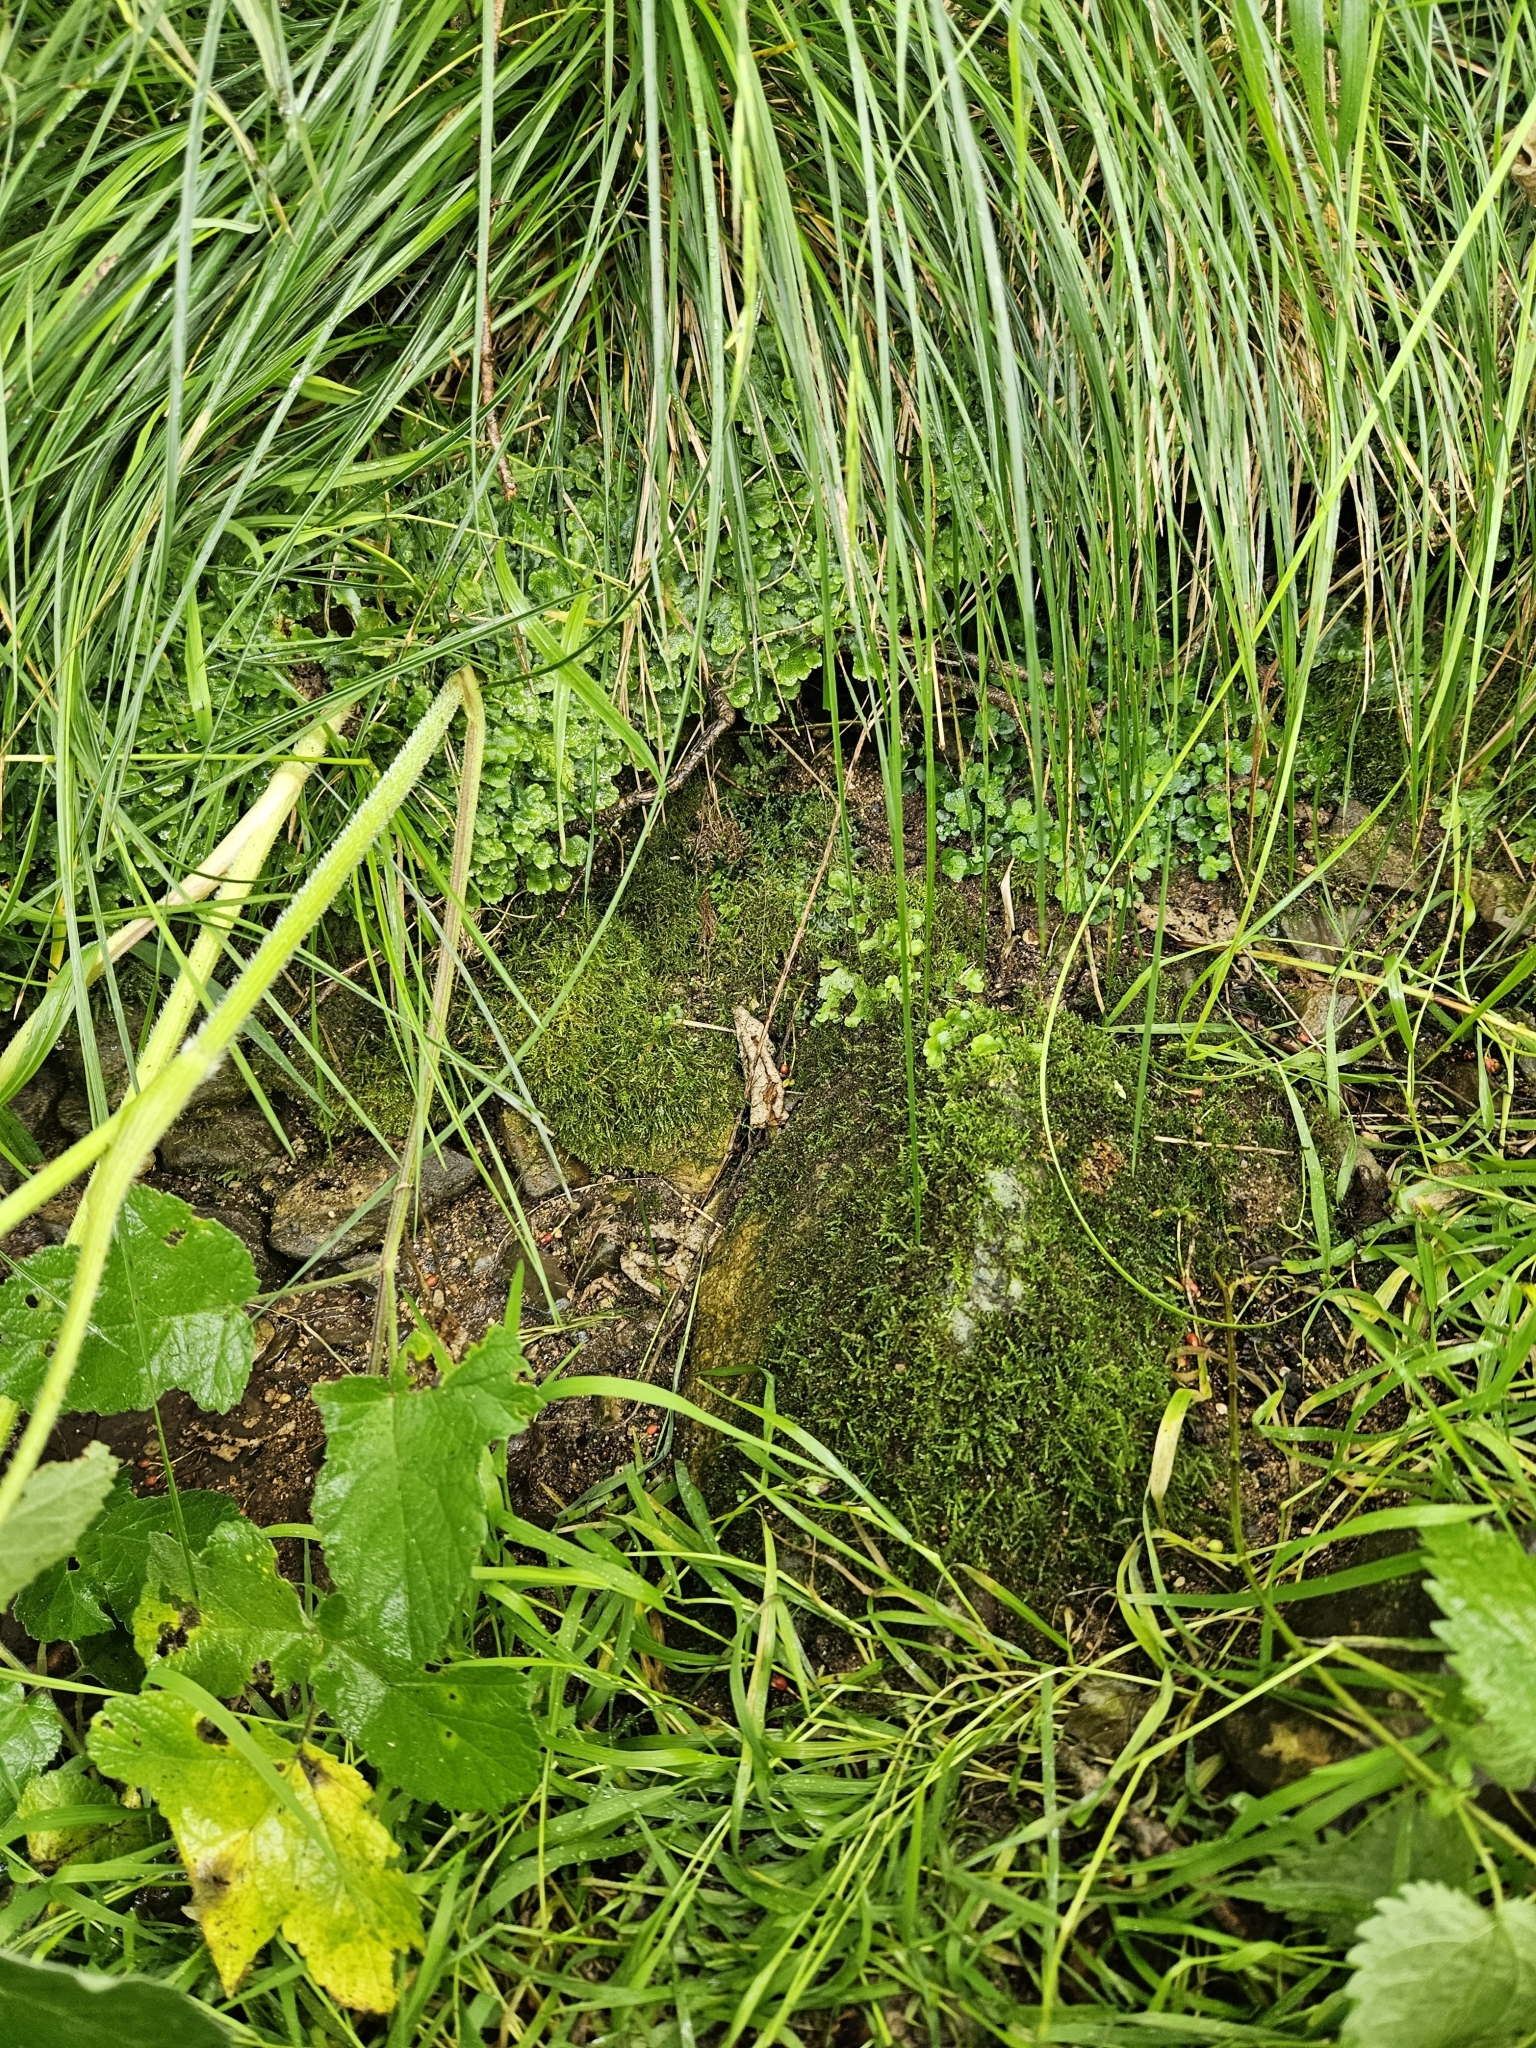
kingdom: Plantae
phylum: Bryophyta
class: Bryopsida
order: Hypnales
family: Amblystegiaceae
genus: Cratoneuron
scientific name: Cratoneuron filicinum
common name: Fern-leaved hook moss
